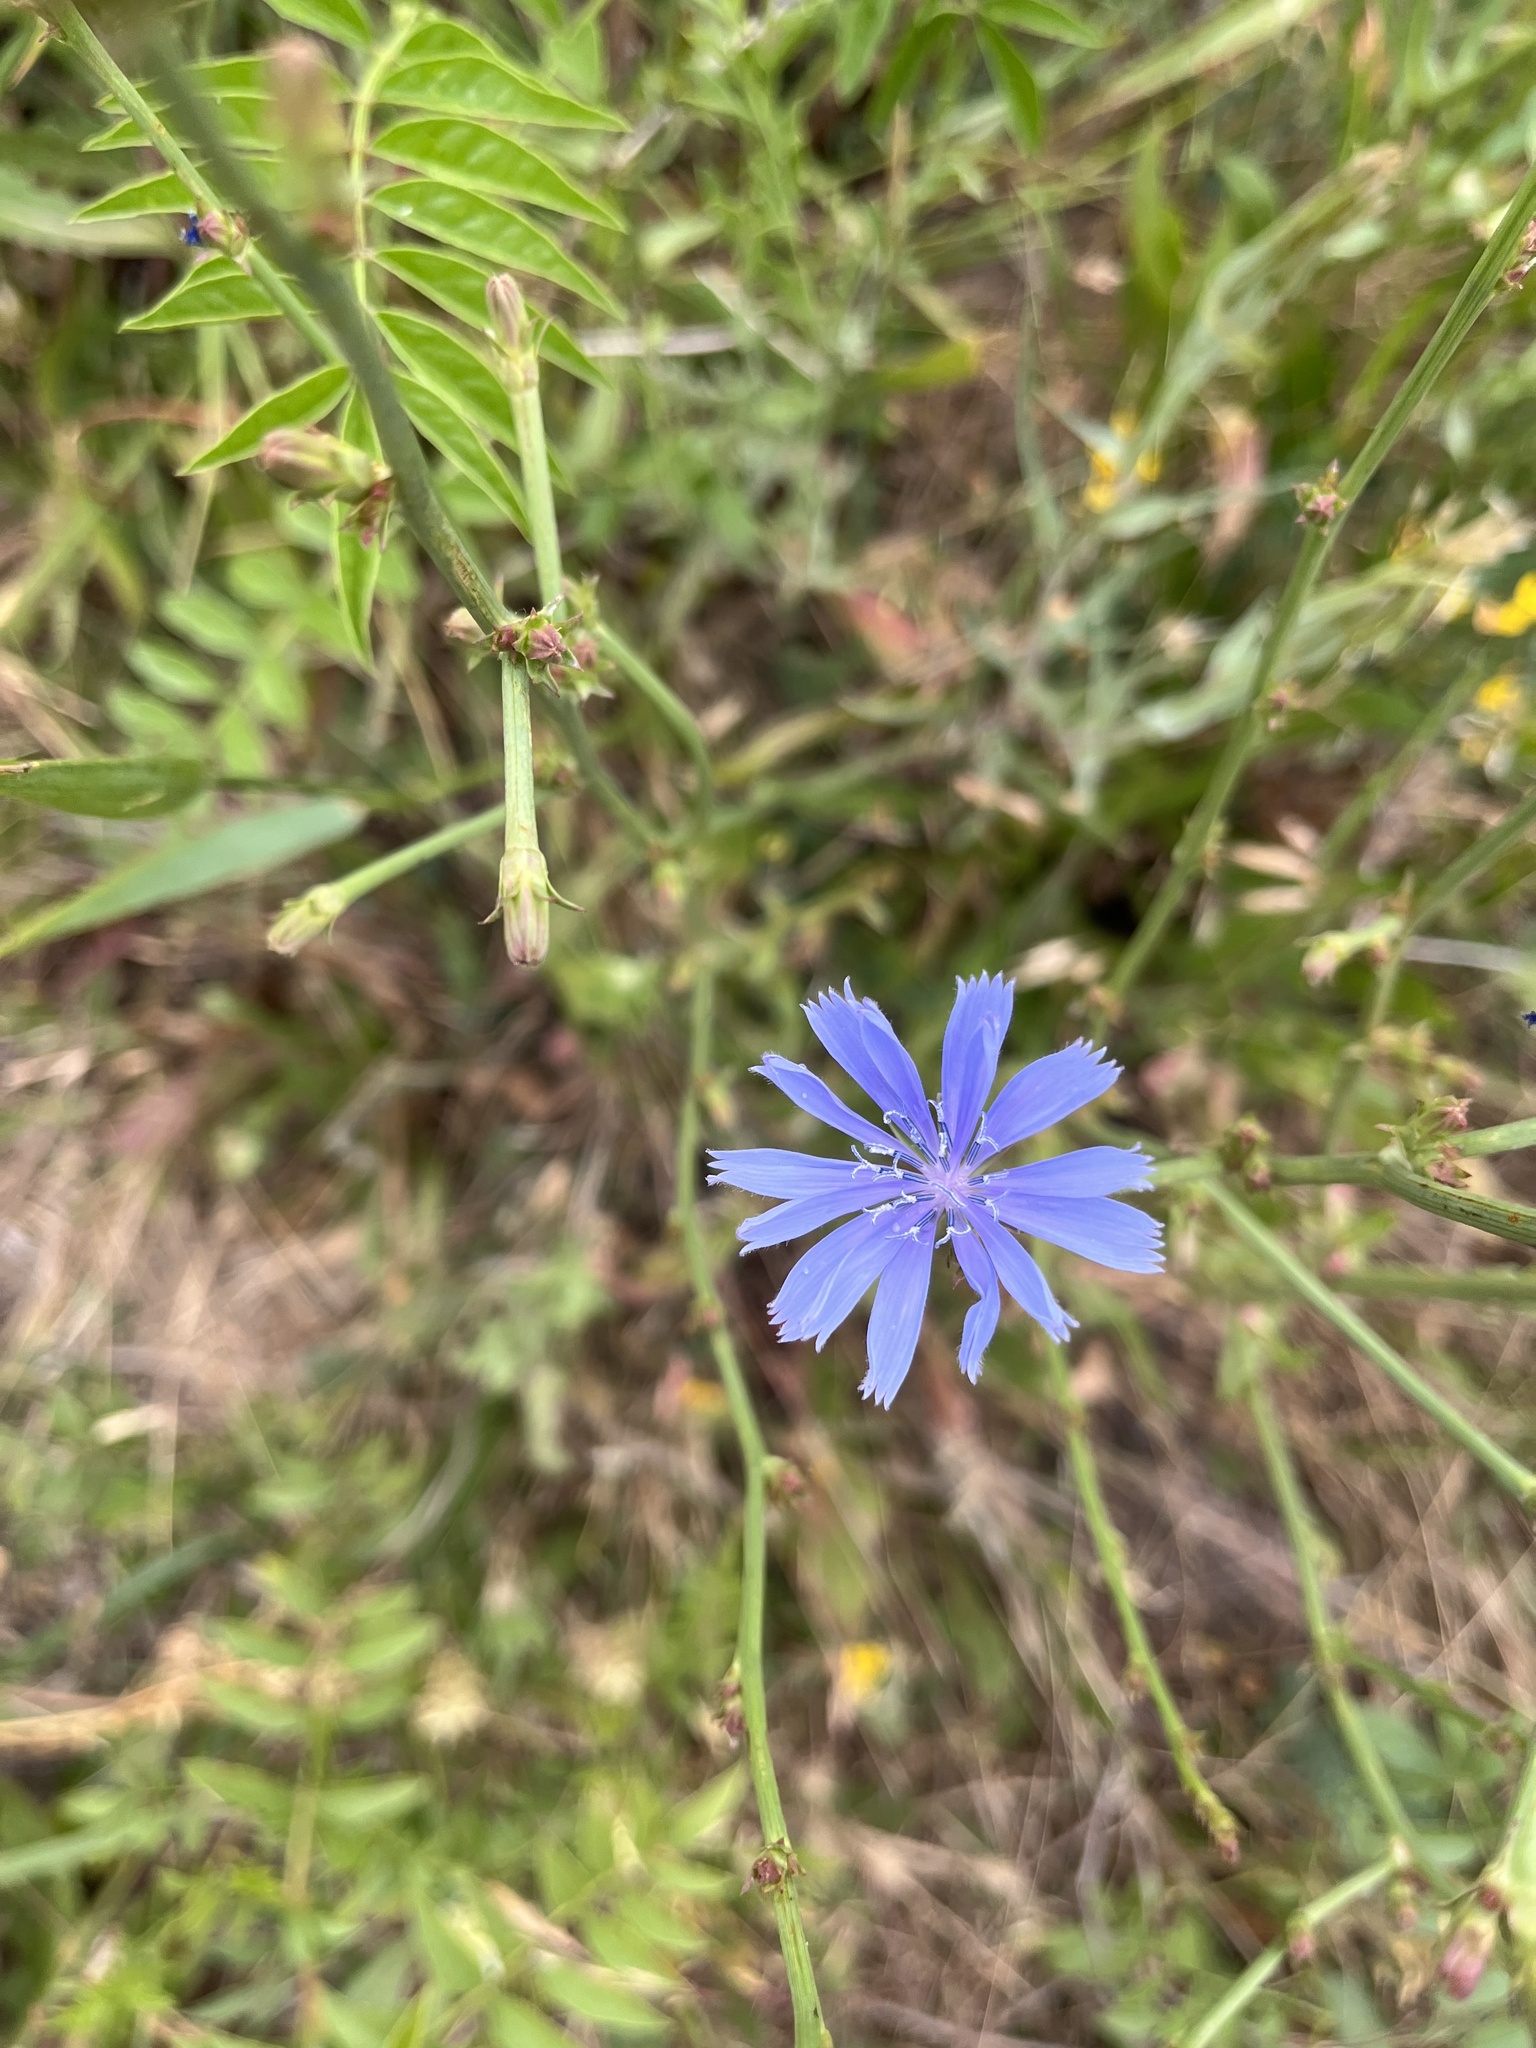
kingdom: Plantae
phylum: Tracheophyta
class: Magnoliopsida
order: Asterales
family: Asteraceae
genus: Cichorium
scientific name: Cichorium intybus
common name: Chicory
